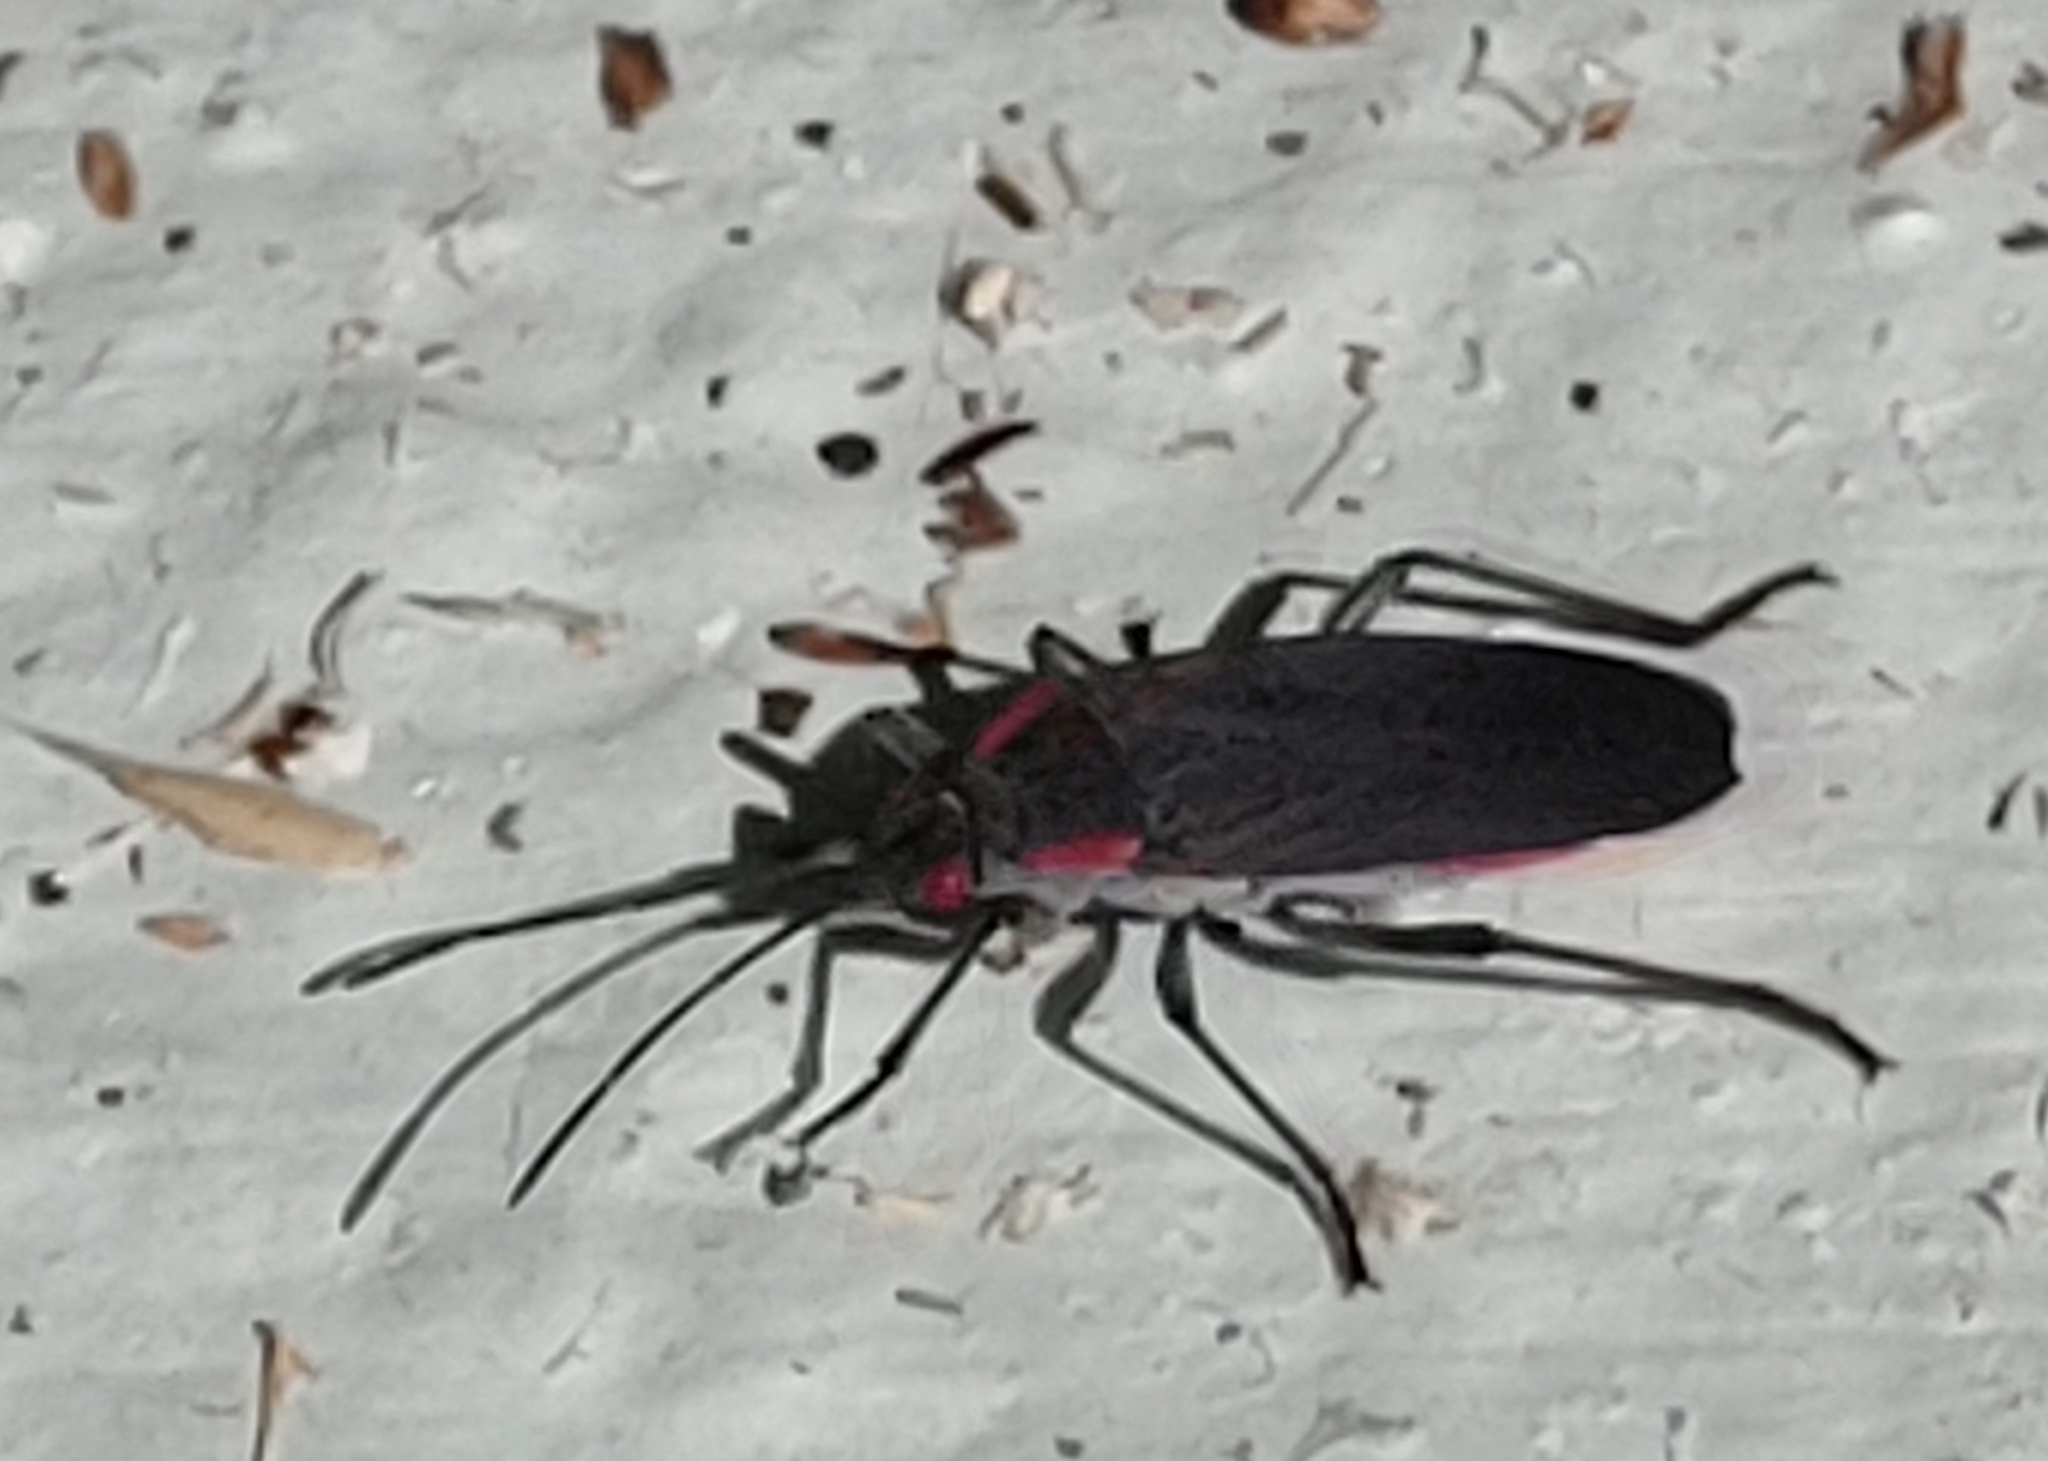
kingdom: Animalia
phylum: Arthropoda
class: Insecta
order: Hemiptera
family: Rhopalidae
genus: Jadera
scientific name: Jadera haematoloma
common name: Red-shouldered bug
